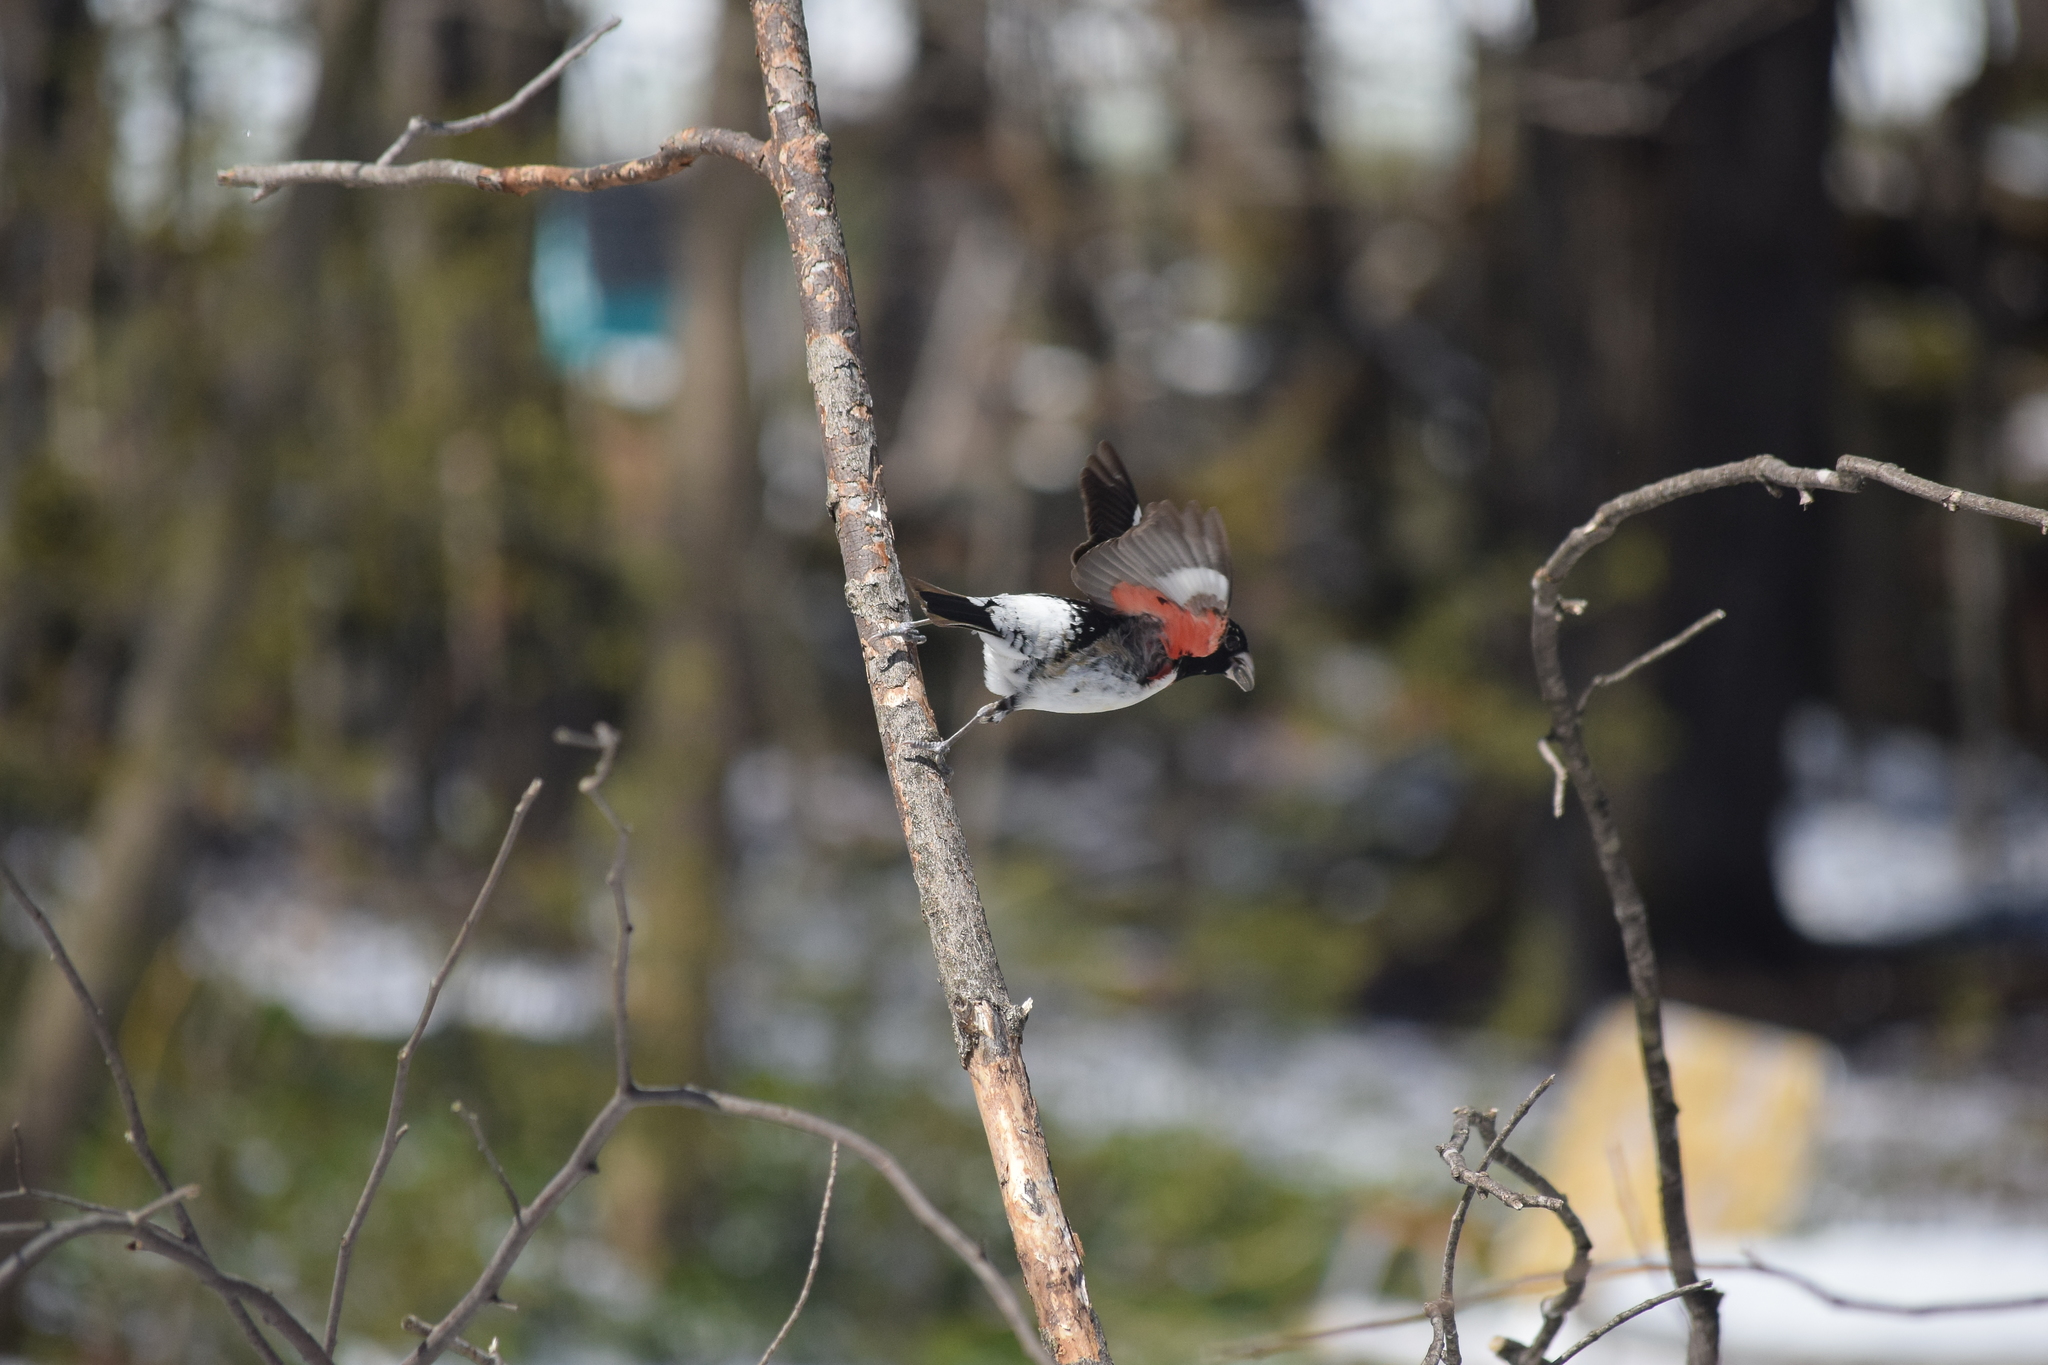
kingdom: Animalia
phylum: Chordata
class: Aves
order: Passeriformes
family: Cardinalidae
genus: Pheucticus
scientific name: Pheucticus ludovicianus
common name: Rose-breasted grosbeak
